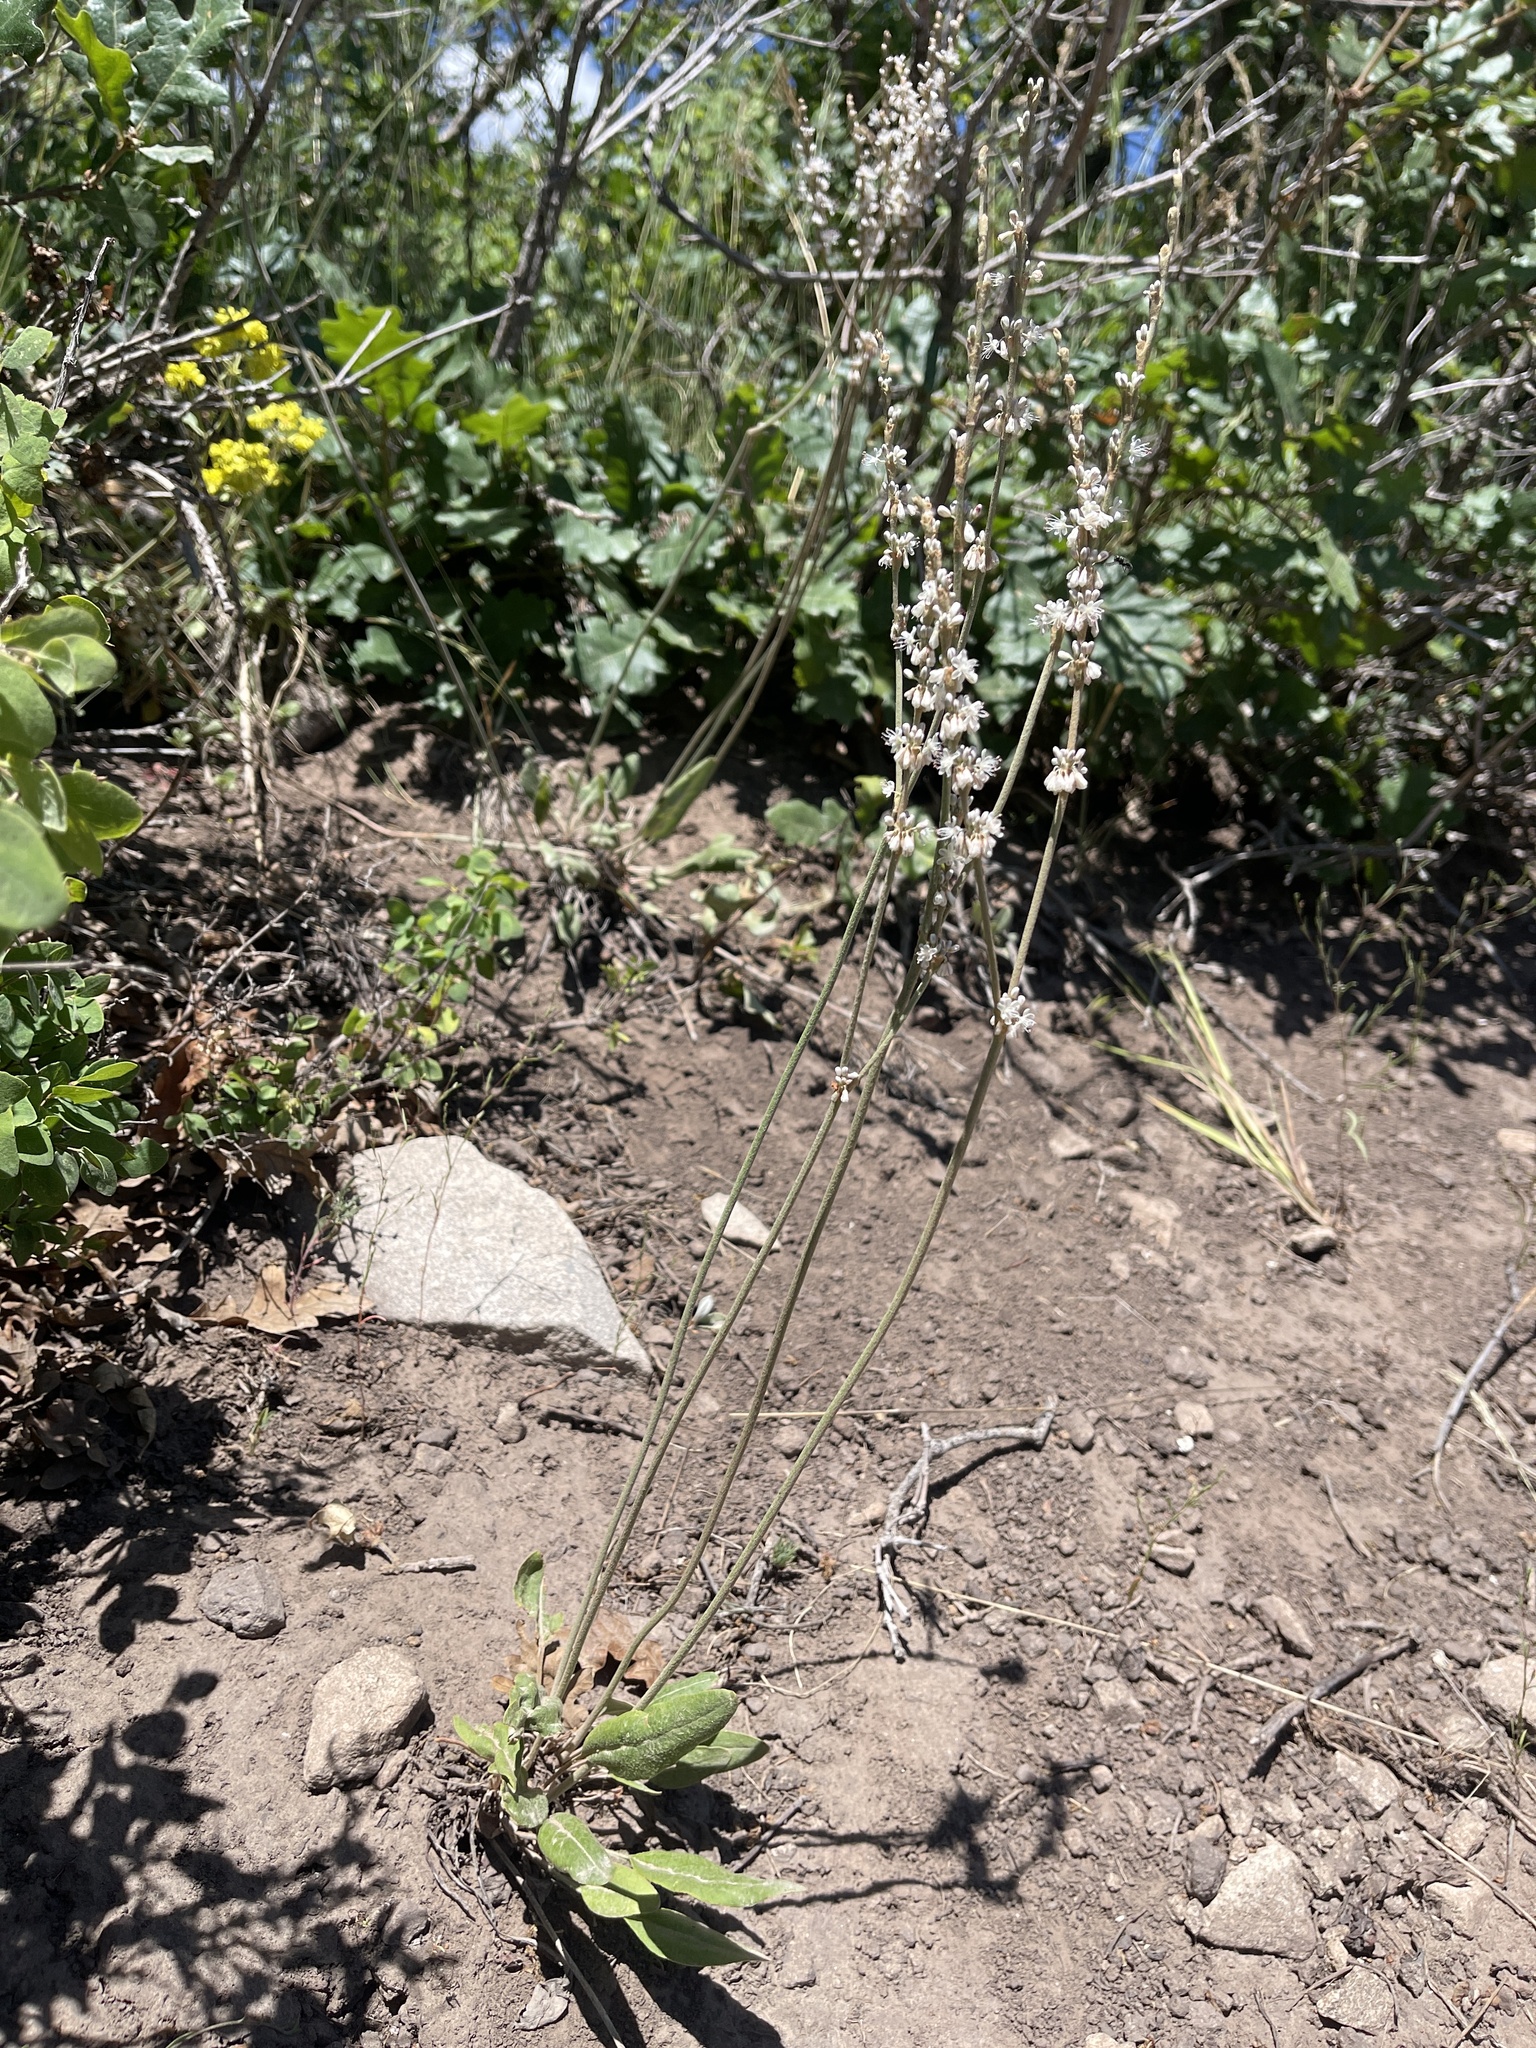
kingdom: Plantae
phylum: Tracheophyta
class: Magnoliopsida
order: Caryophyllales
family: Polygonaceae
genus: Eriogonum
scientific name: Eriogonum racemosum
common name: Redroot wild buckwheat
